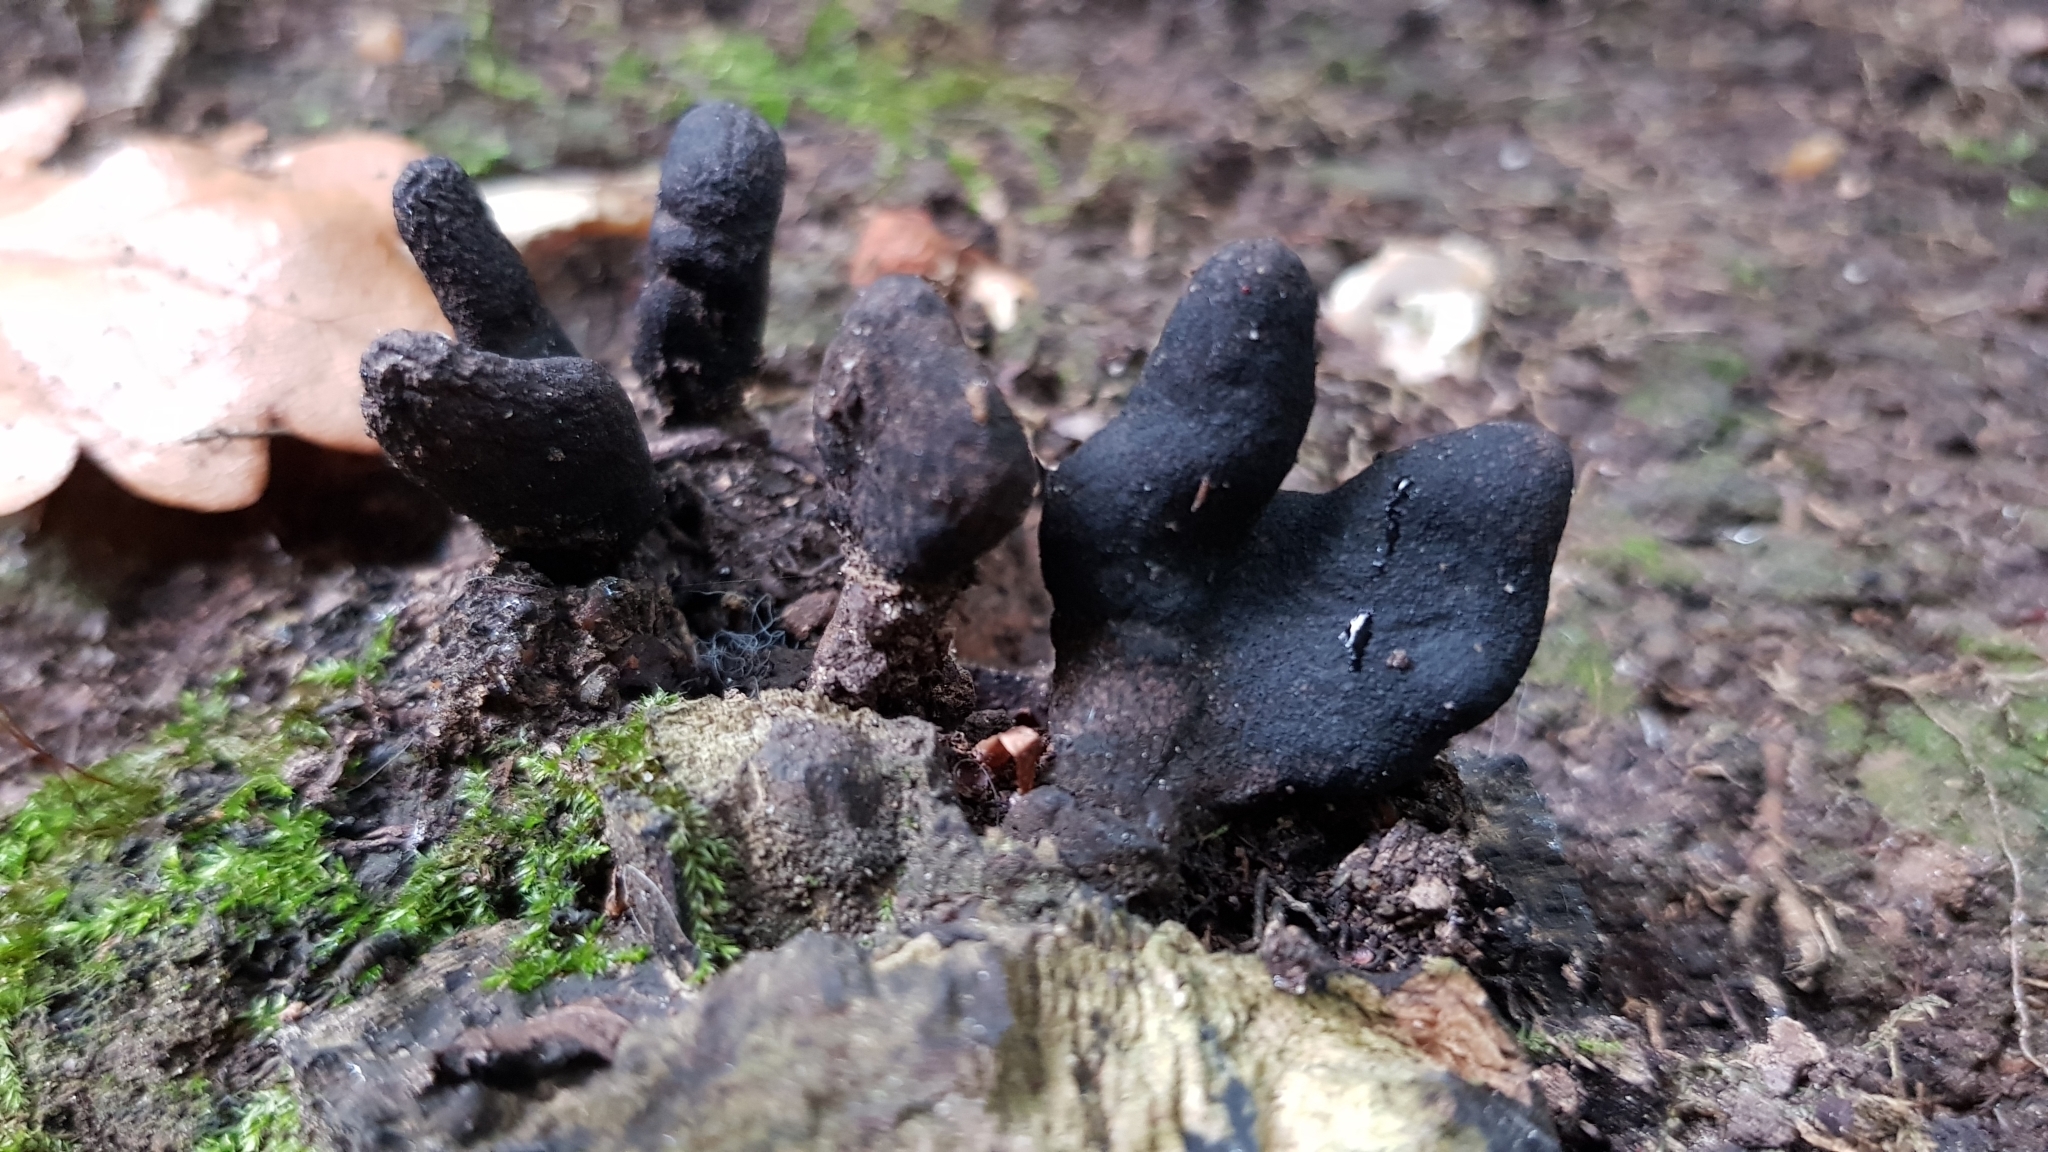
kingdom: Fungi
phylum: Ascomycota
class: Sordariomycetes
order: Xylariales
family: Xylariaceae
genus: Xylaria
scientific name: Xylaria polymorpha
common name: Dead man's fingers
